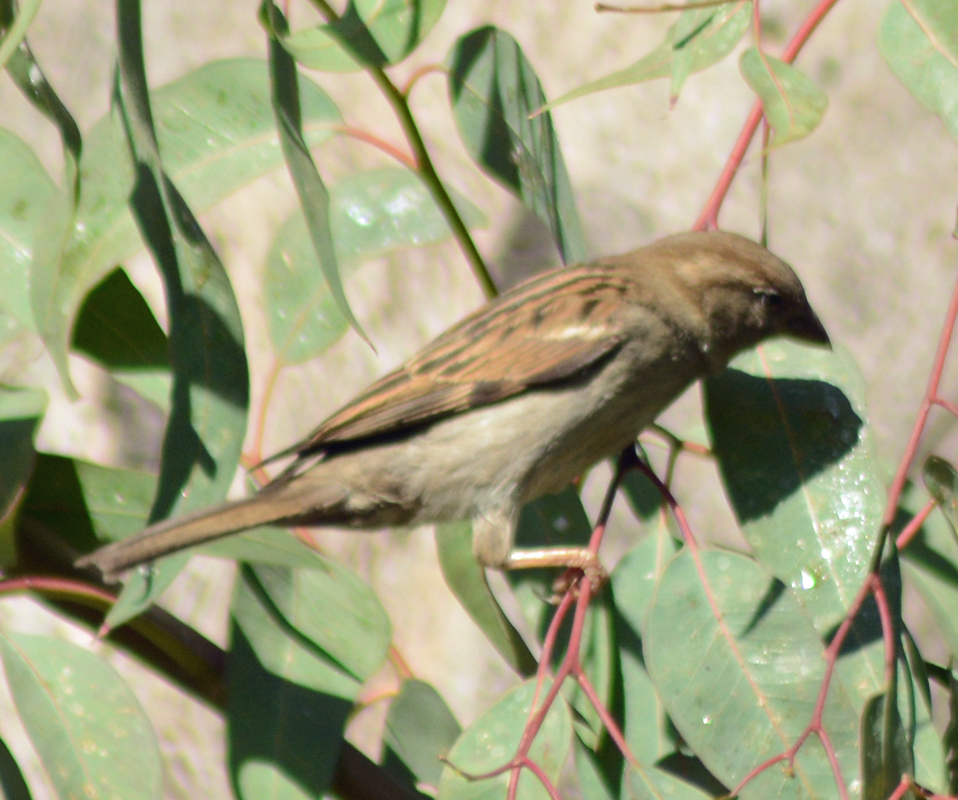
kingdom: Animalia
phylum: Chordata
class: Aves
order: Passeriformes
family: Passeridae
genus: Passer
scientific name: Passer domesticus
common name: House sparrow
